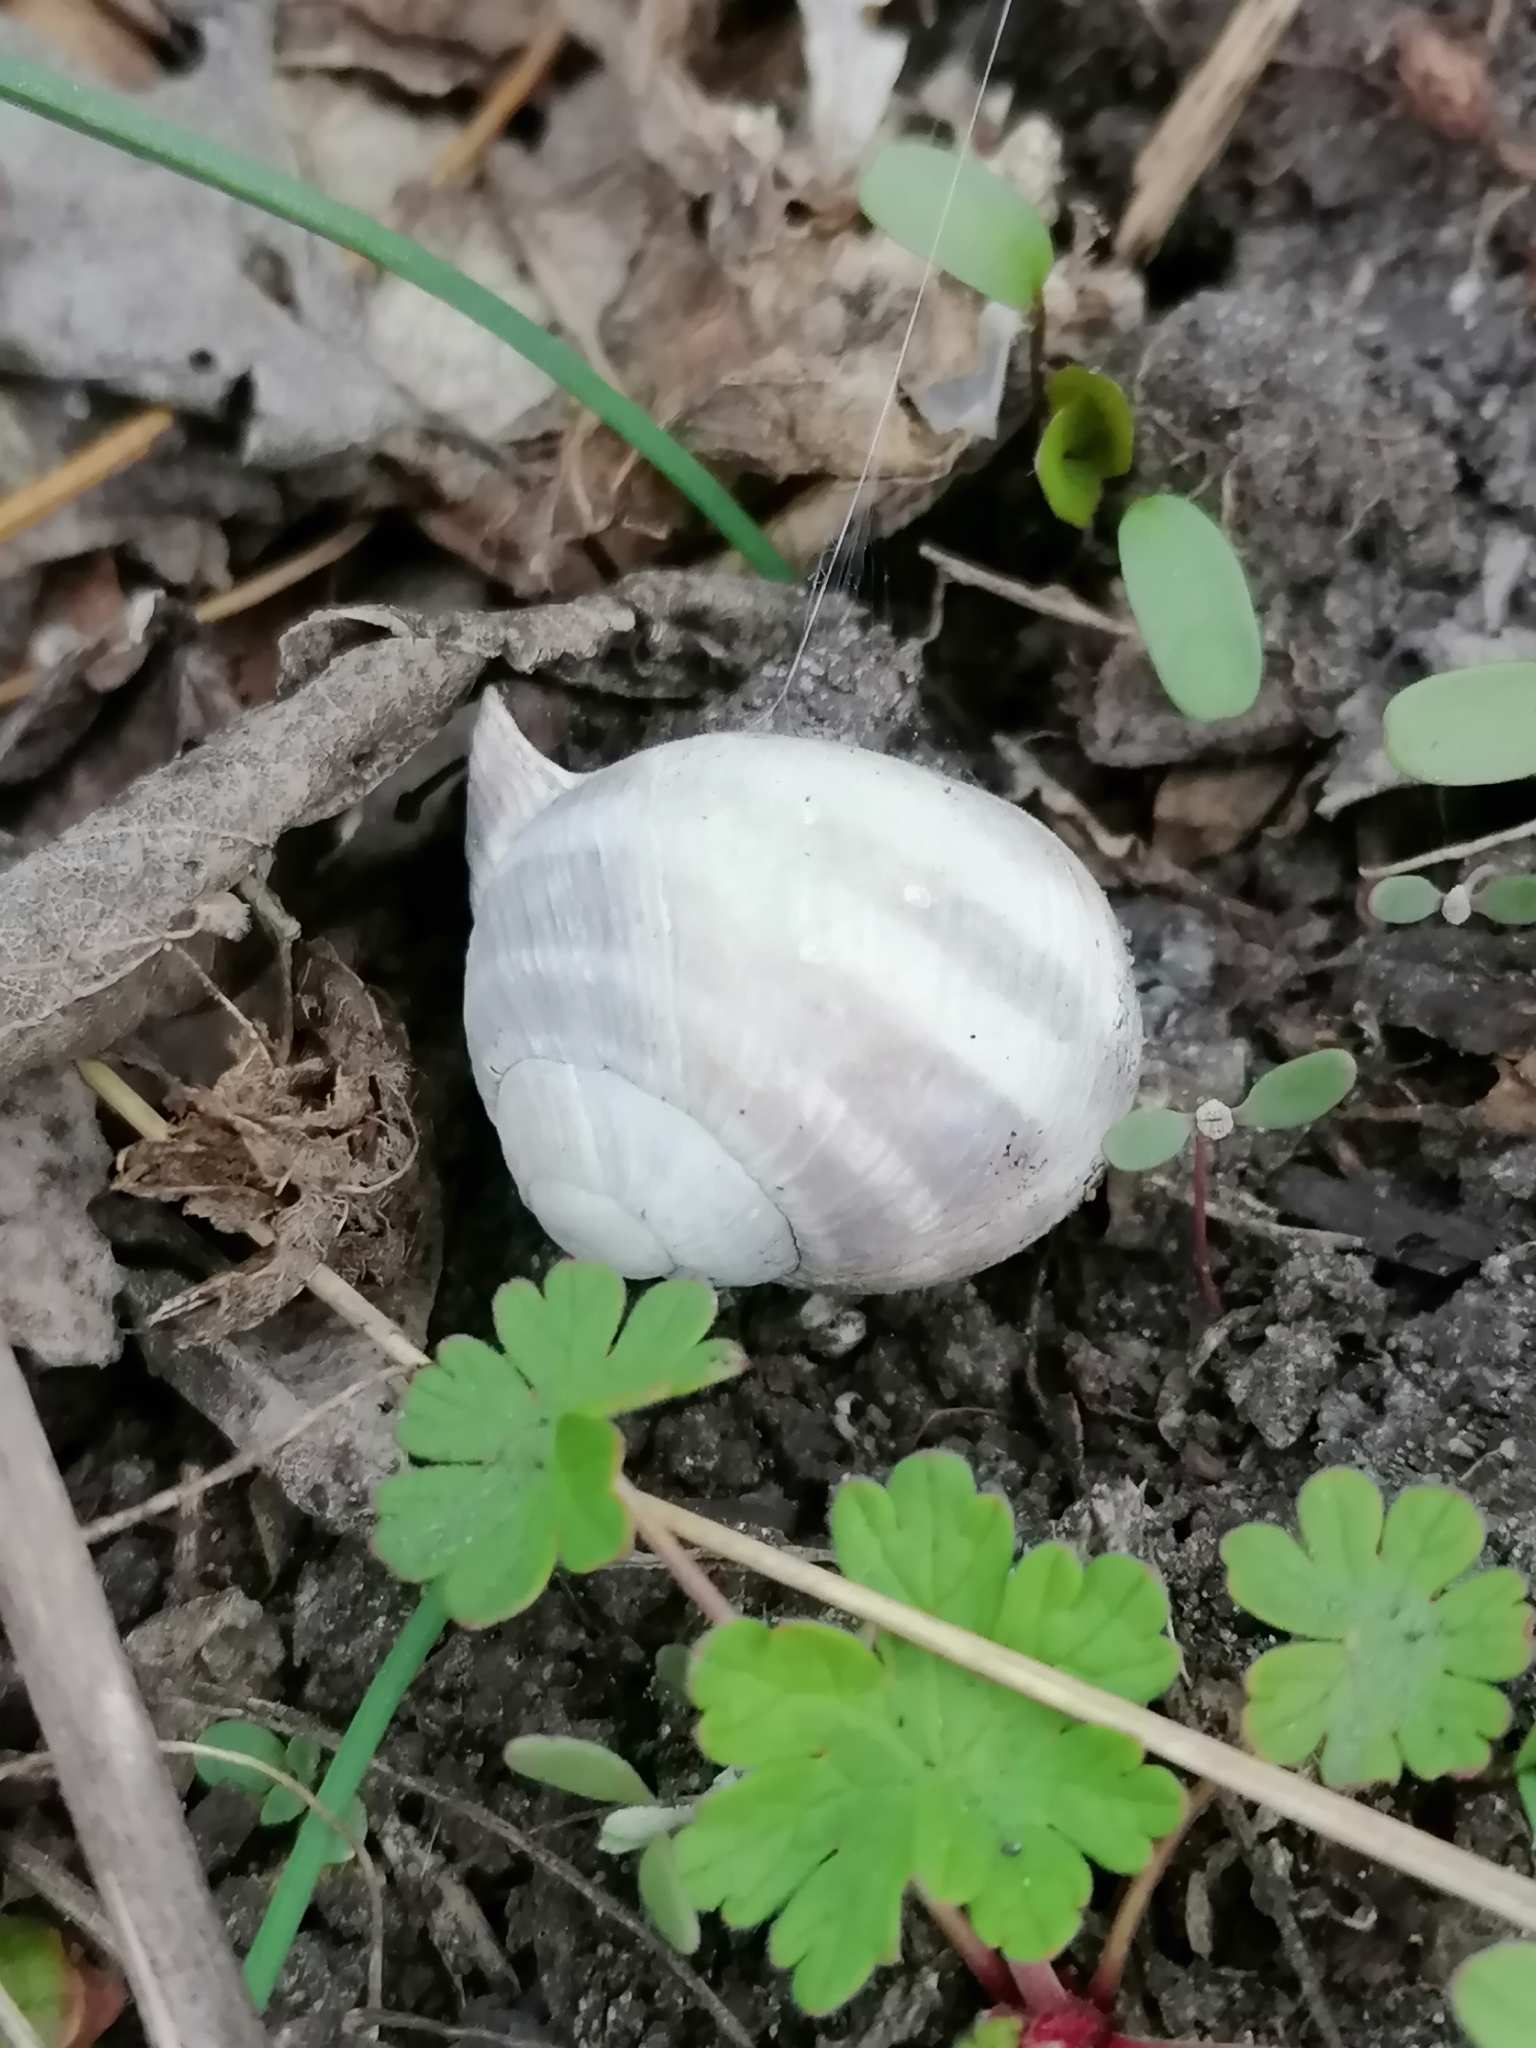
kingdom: Animalia
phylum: Mollusca
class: Gastropoda
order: Stylommatophora
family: Helicidae
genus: Helix
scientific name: Helix albescens
